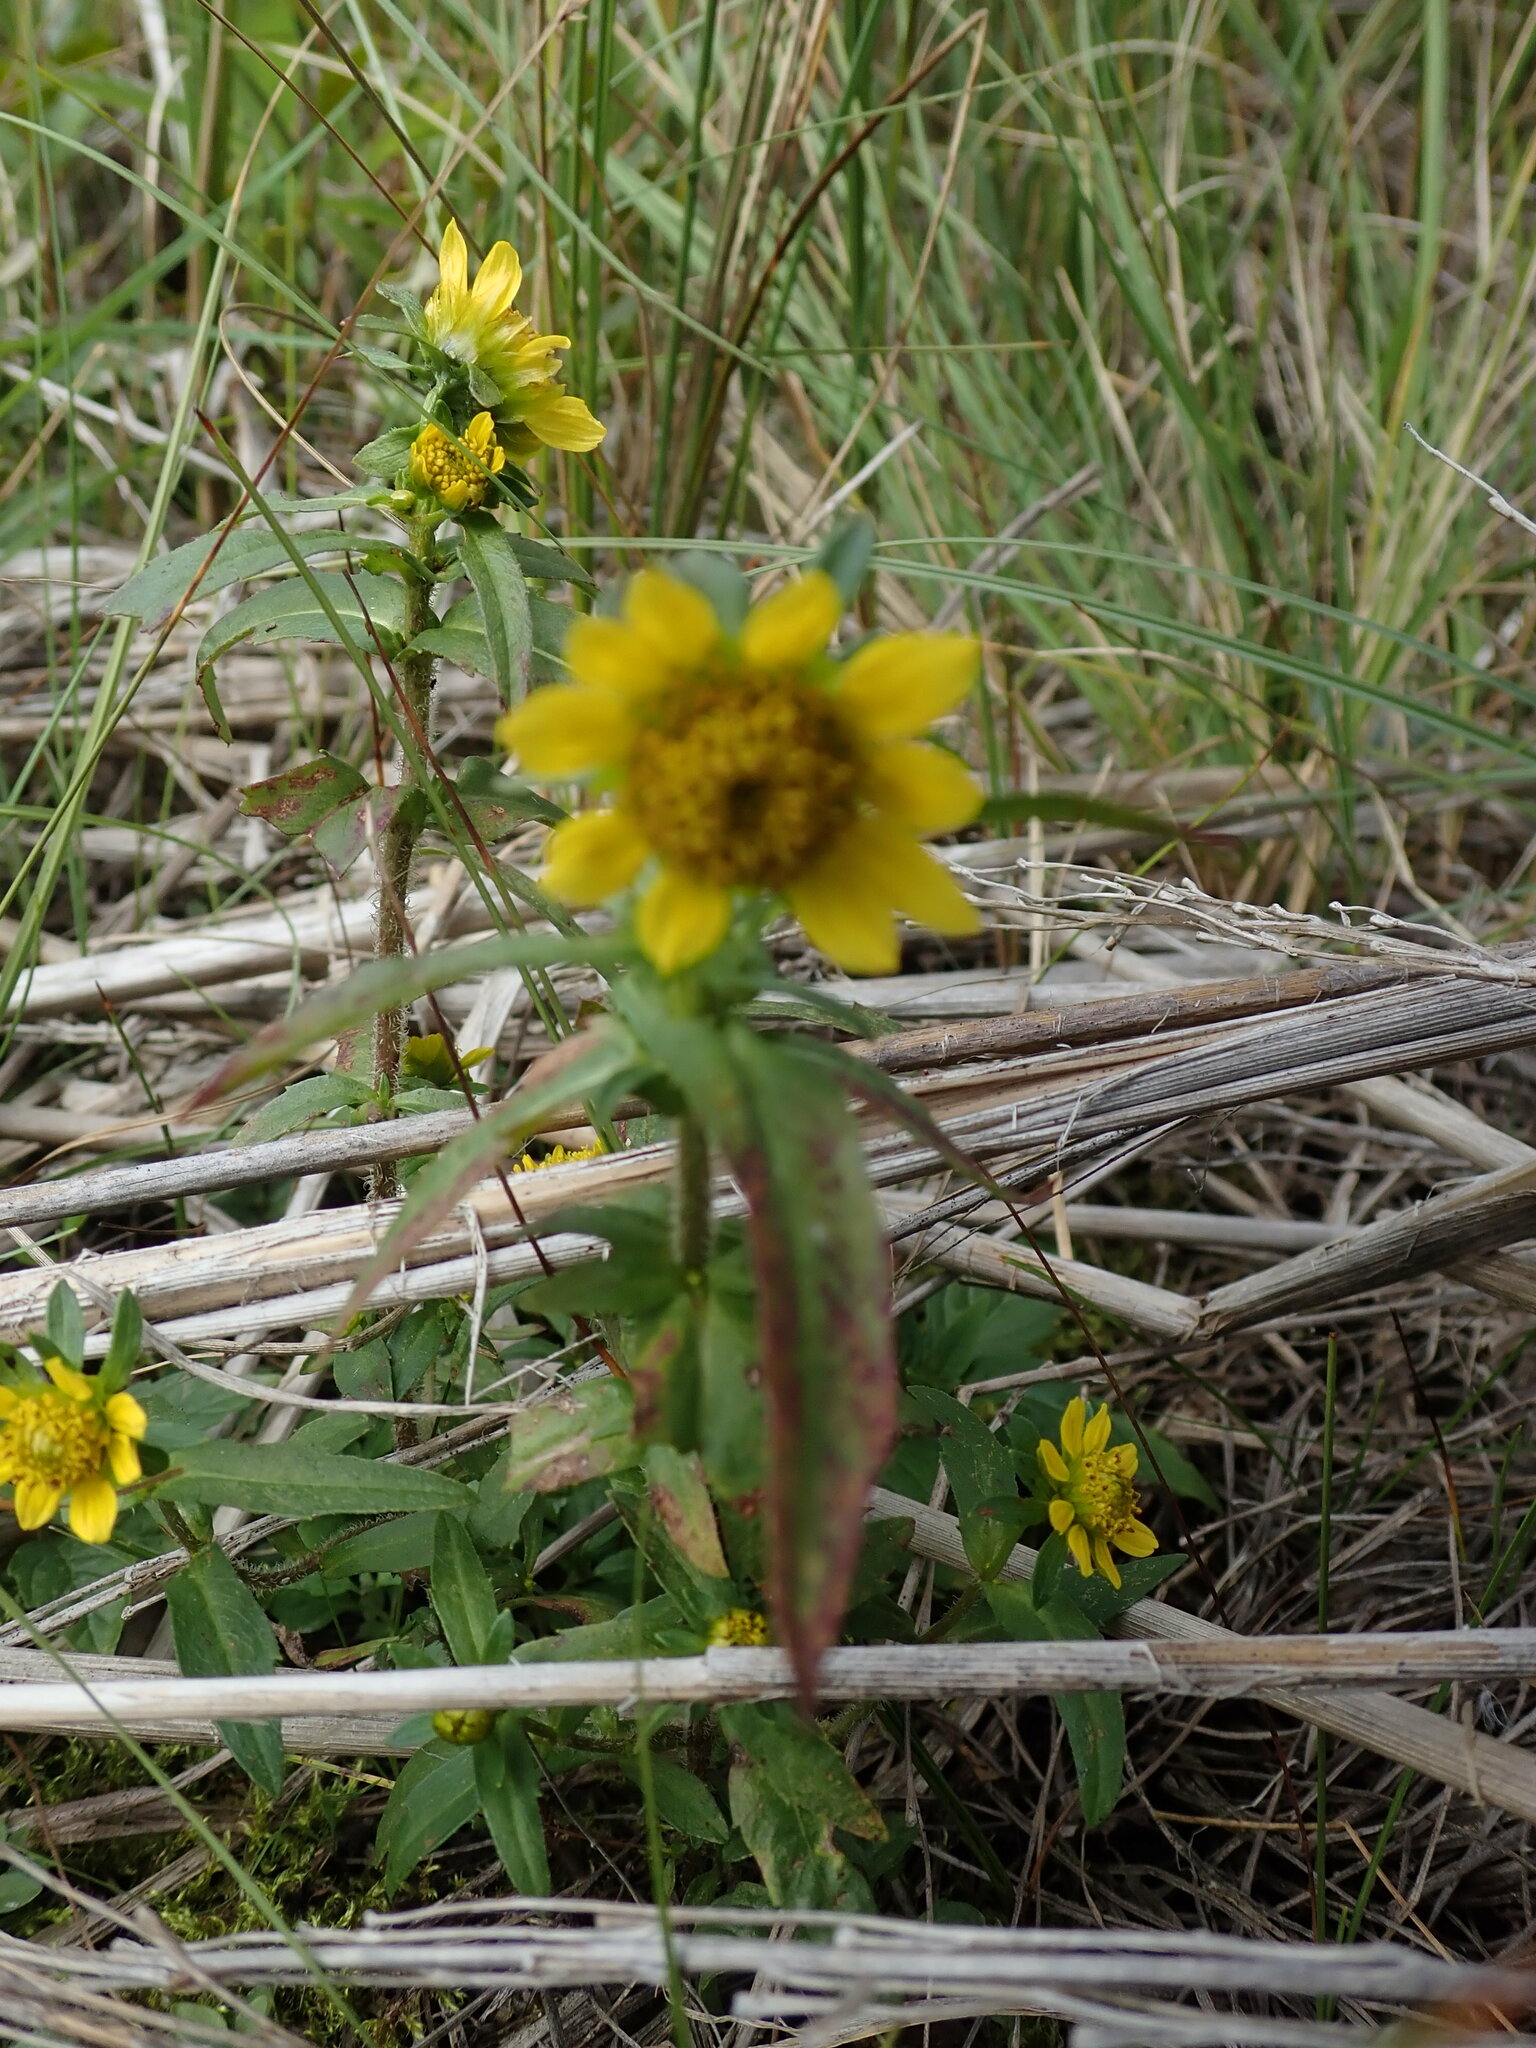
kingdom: Plantae
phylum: Tracheophyta
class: Magnoliopsida
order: Asterales
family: Asteraceae
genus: Bidens
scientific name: Bidens cernua
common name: Nodding bur-marigold
